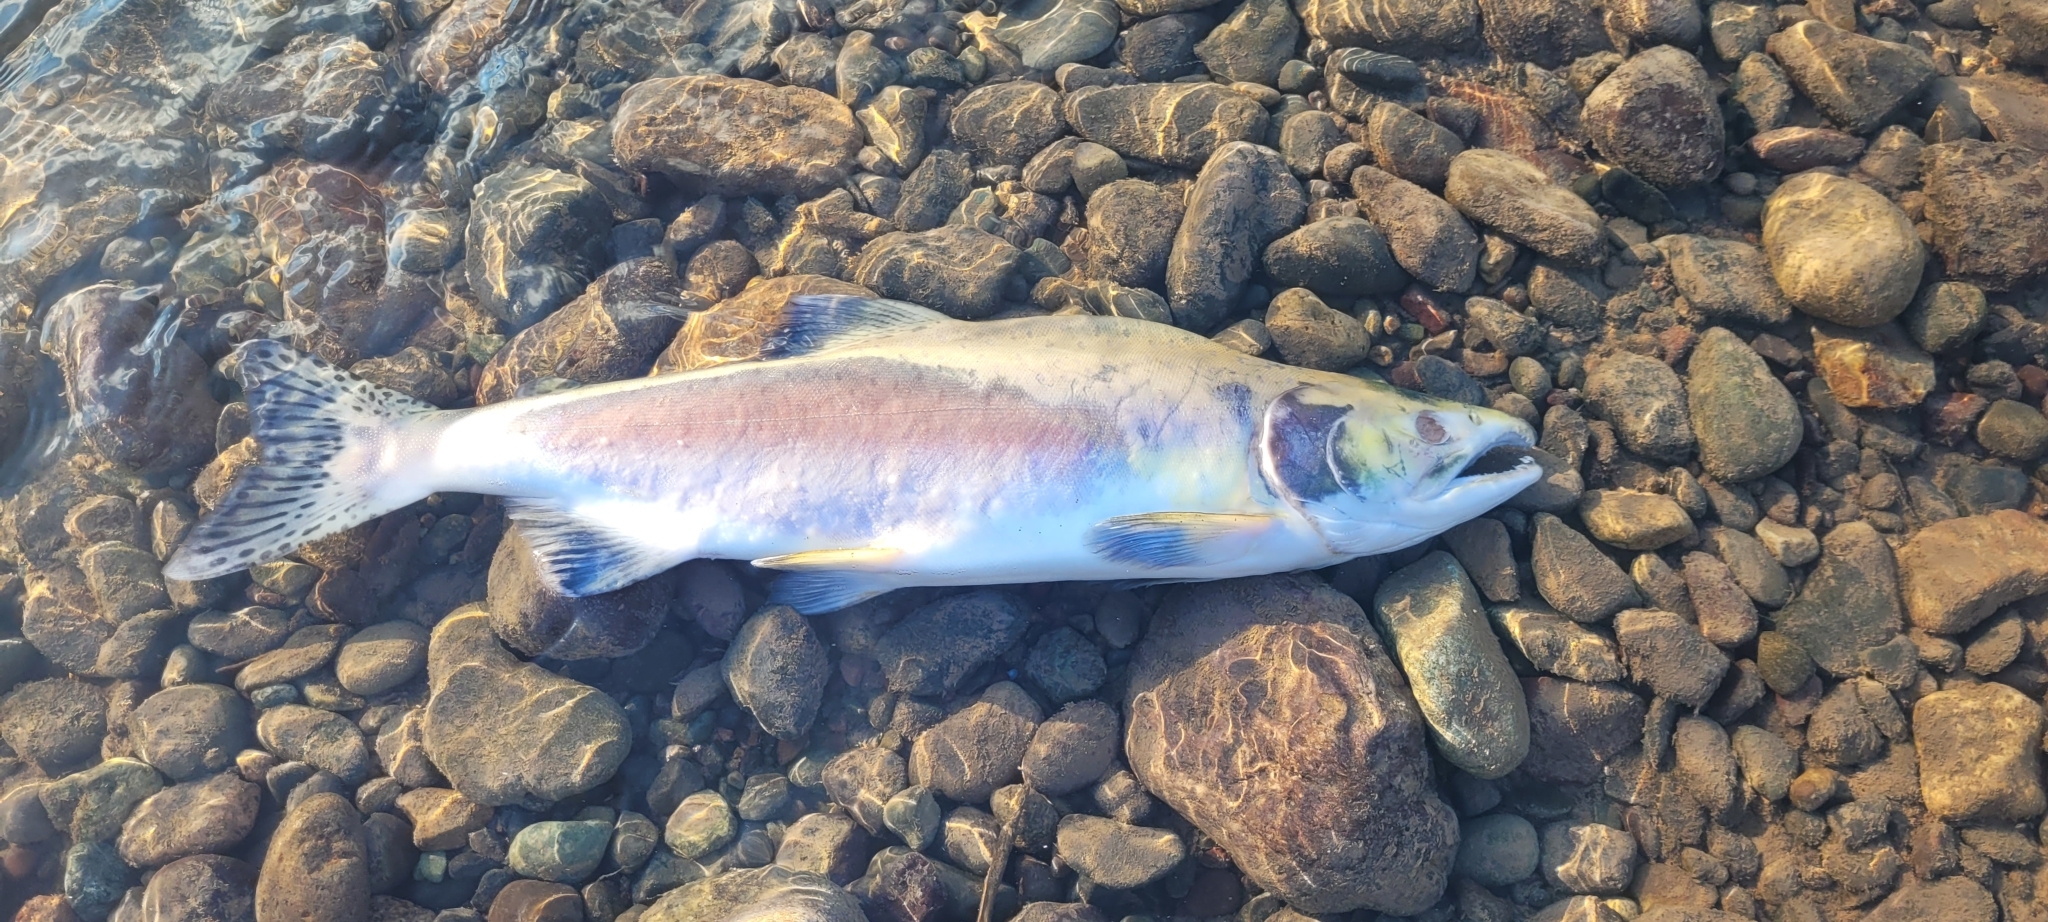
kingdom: Animalia
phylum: Chordata
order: Salmoniformes
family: Salmonidae
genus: Oncorhynchus
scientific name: Oncorhynchus gorbuscha
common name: Humpback salmon
